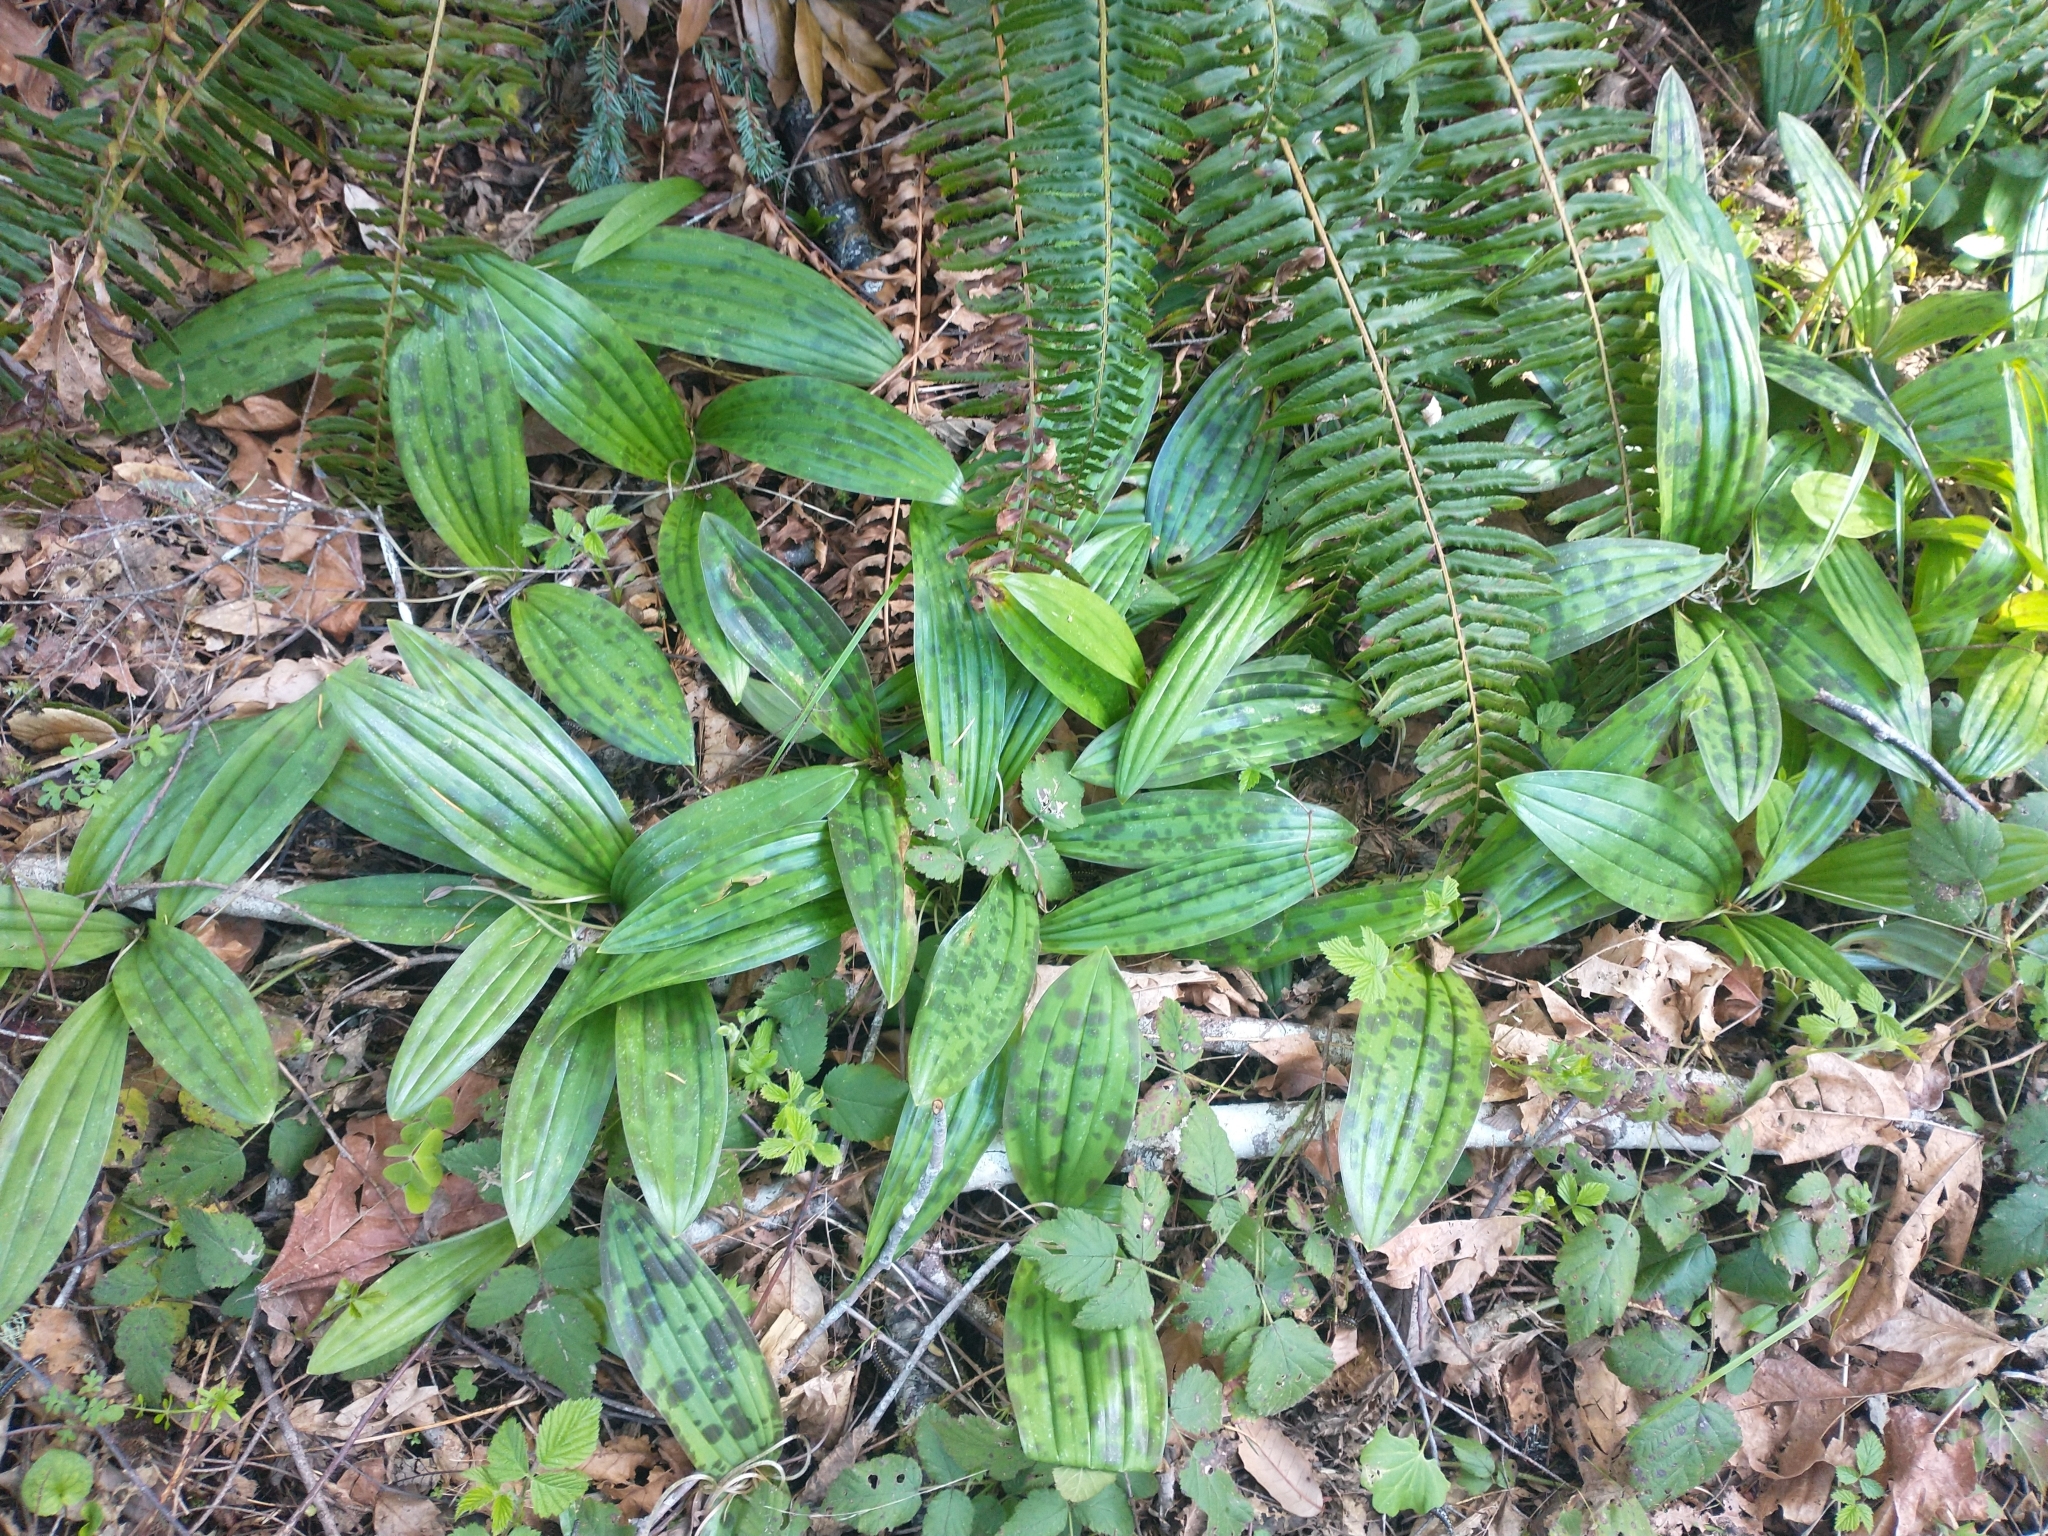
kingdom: Plantae
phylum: Tracheophyta
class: Liliopsida
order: Liliales
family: Liliaceae
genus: Scoliopus
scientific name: Scoliopus bigelovii
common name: Foetid adder's-tongue
